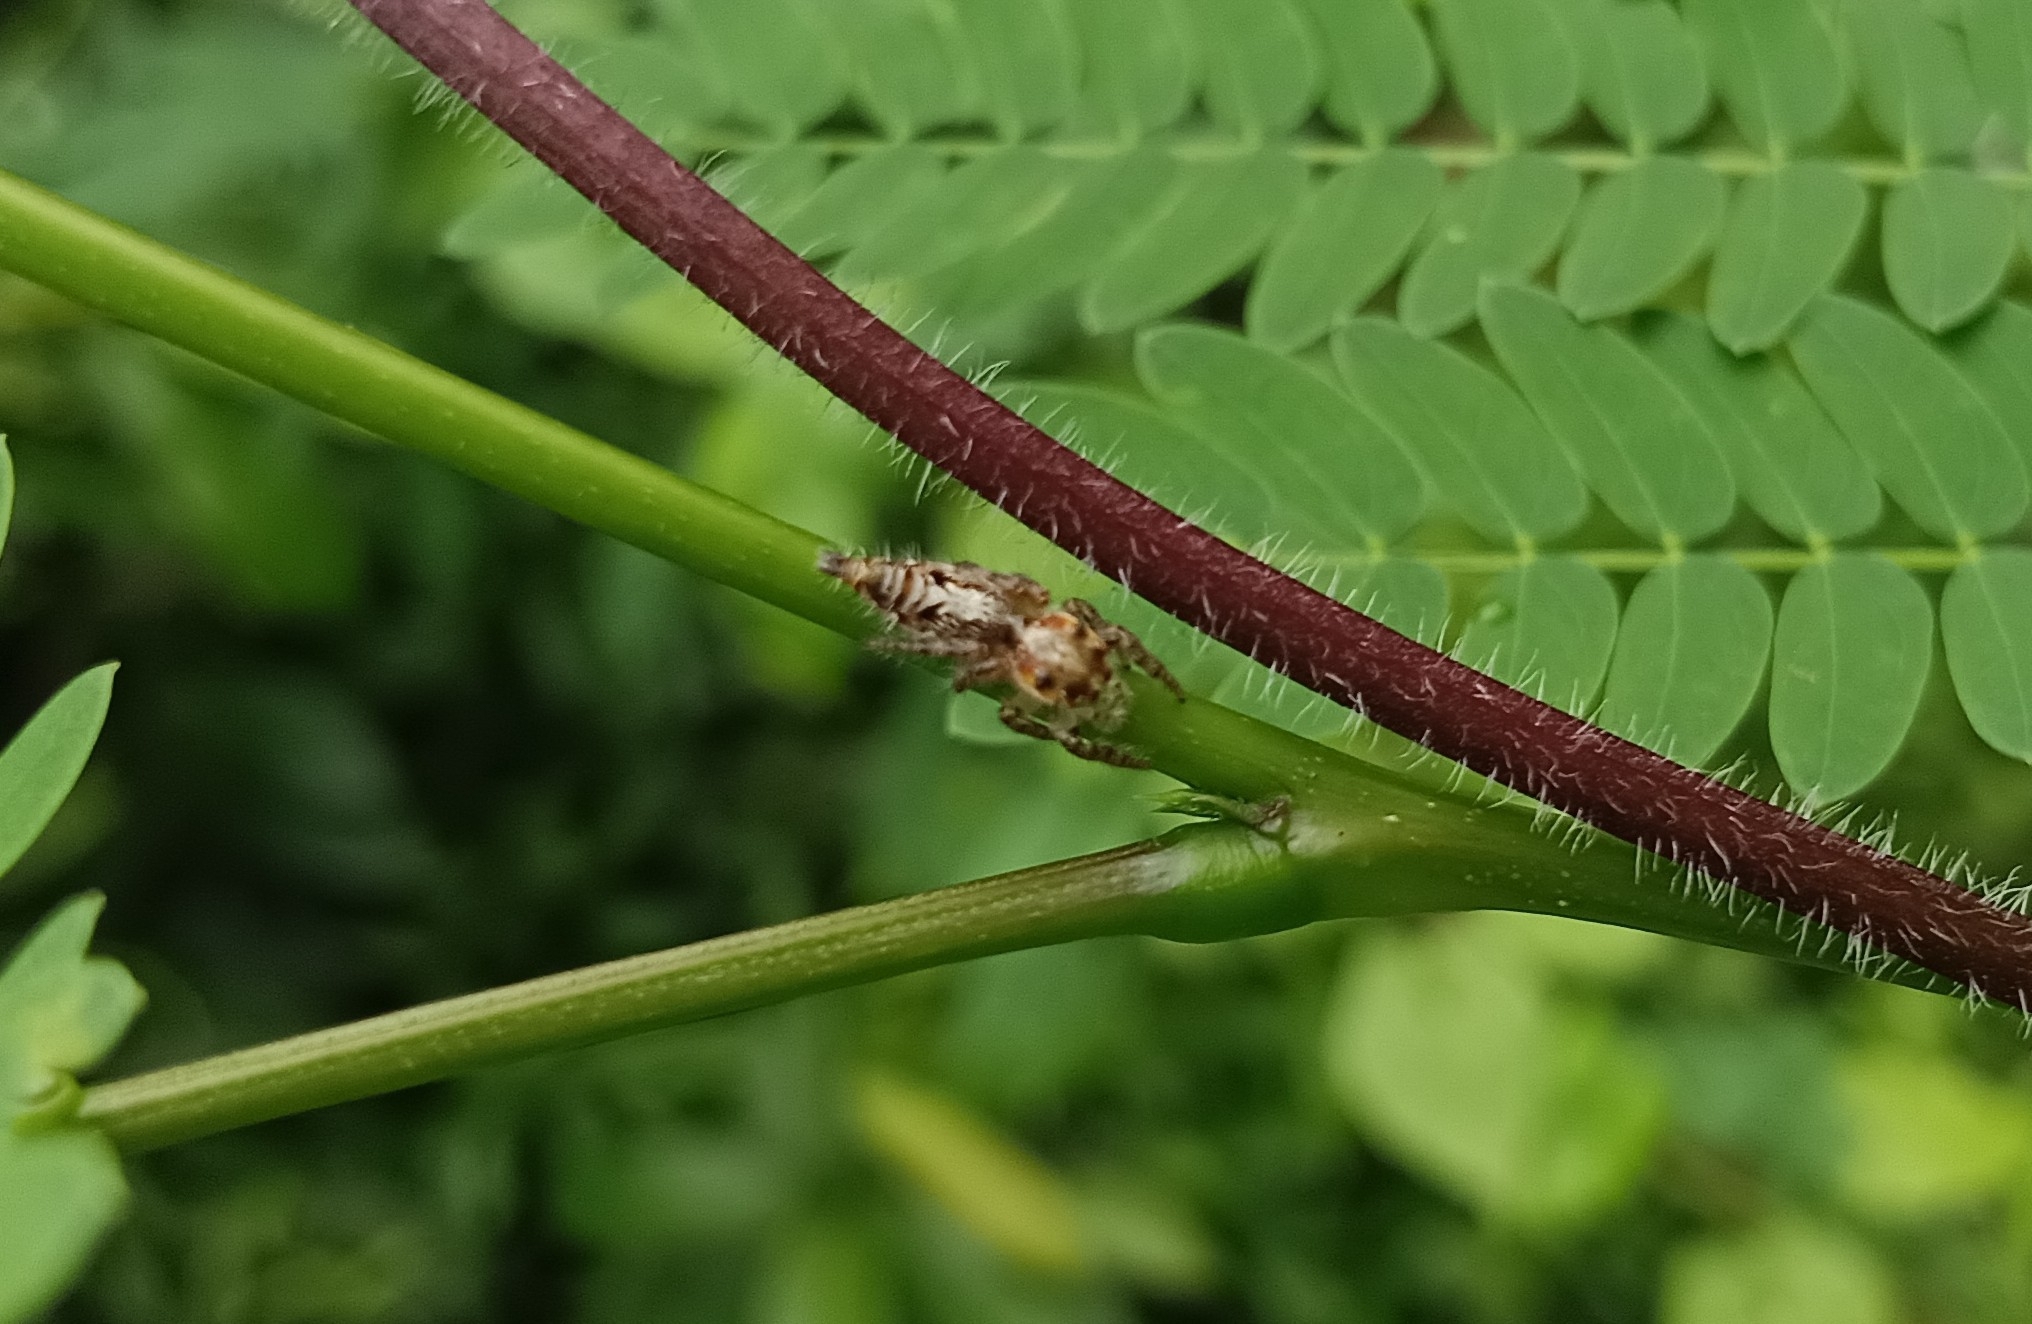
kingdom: Animalia
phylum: Arthropoda
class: Arachnida
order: Araneae
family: Salticidae
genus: Hyllus
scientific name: Hyllus semicupreus
